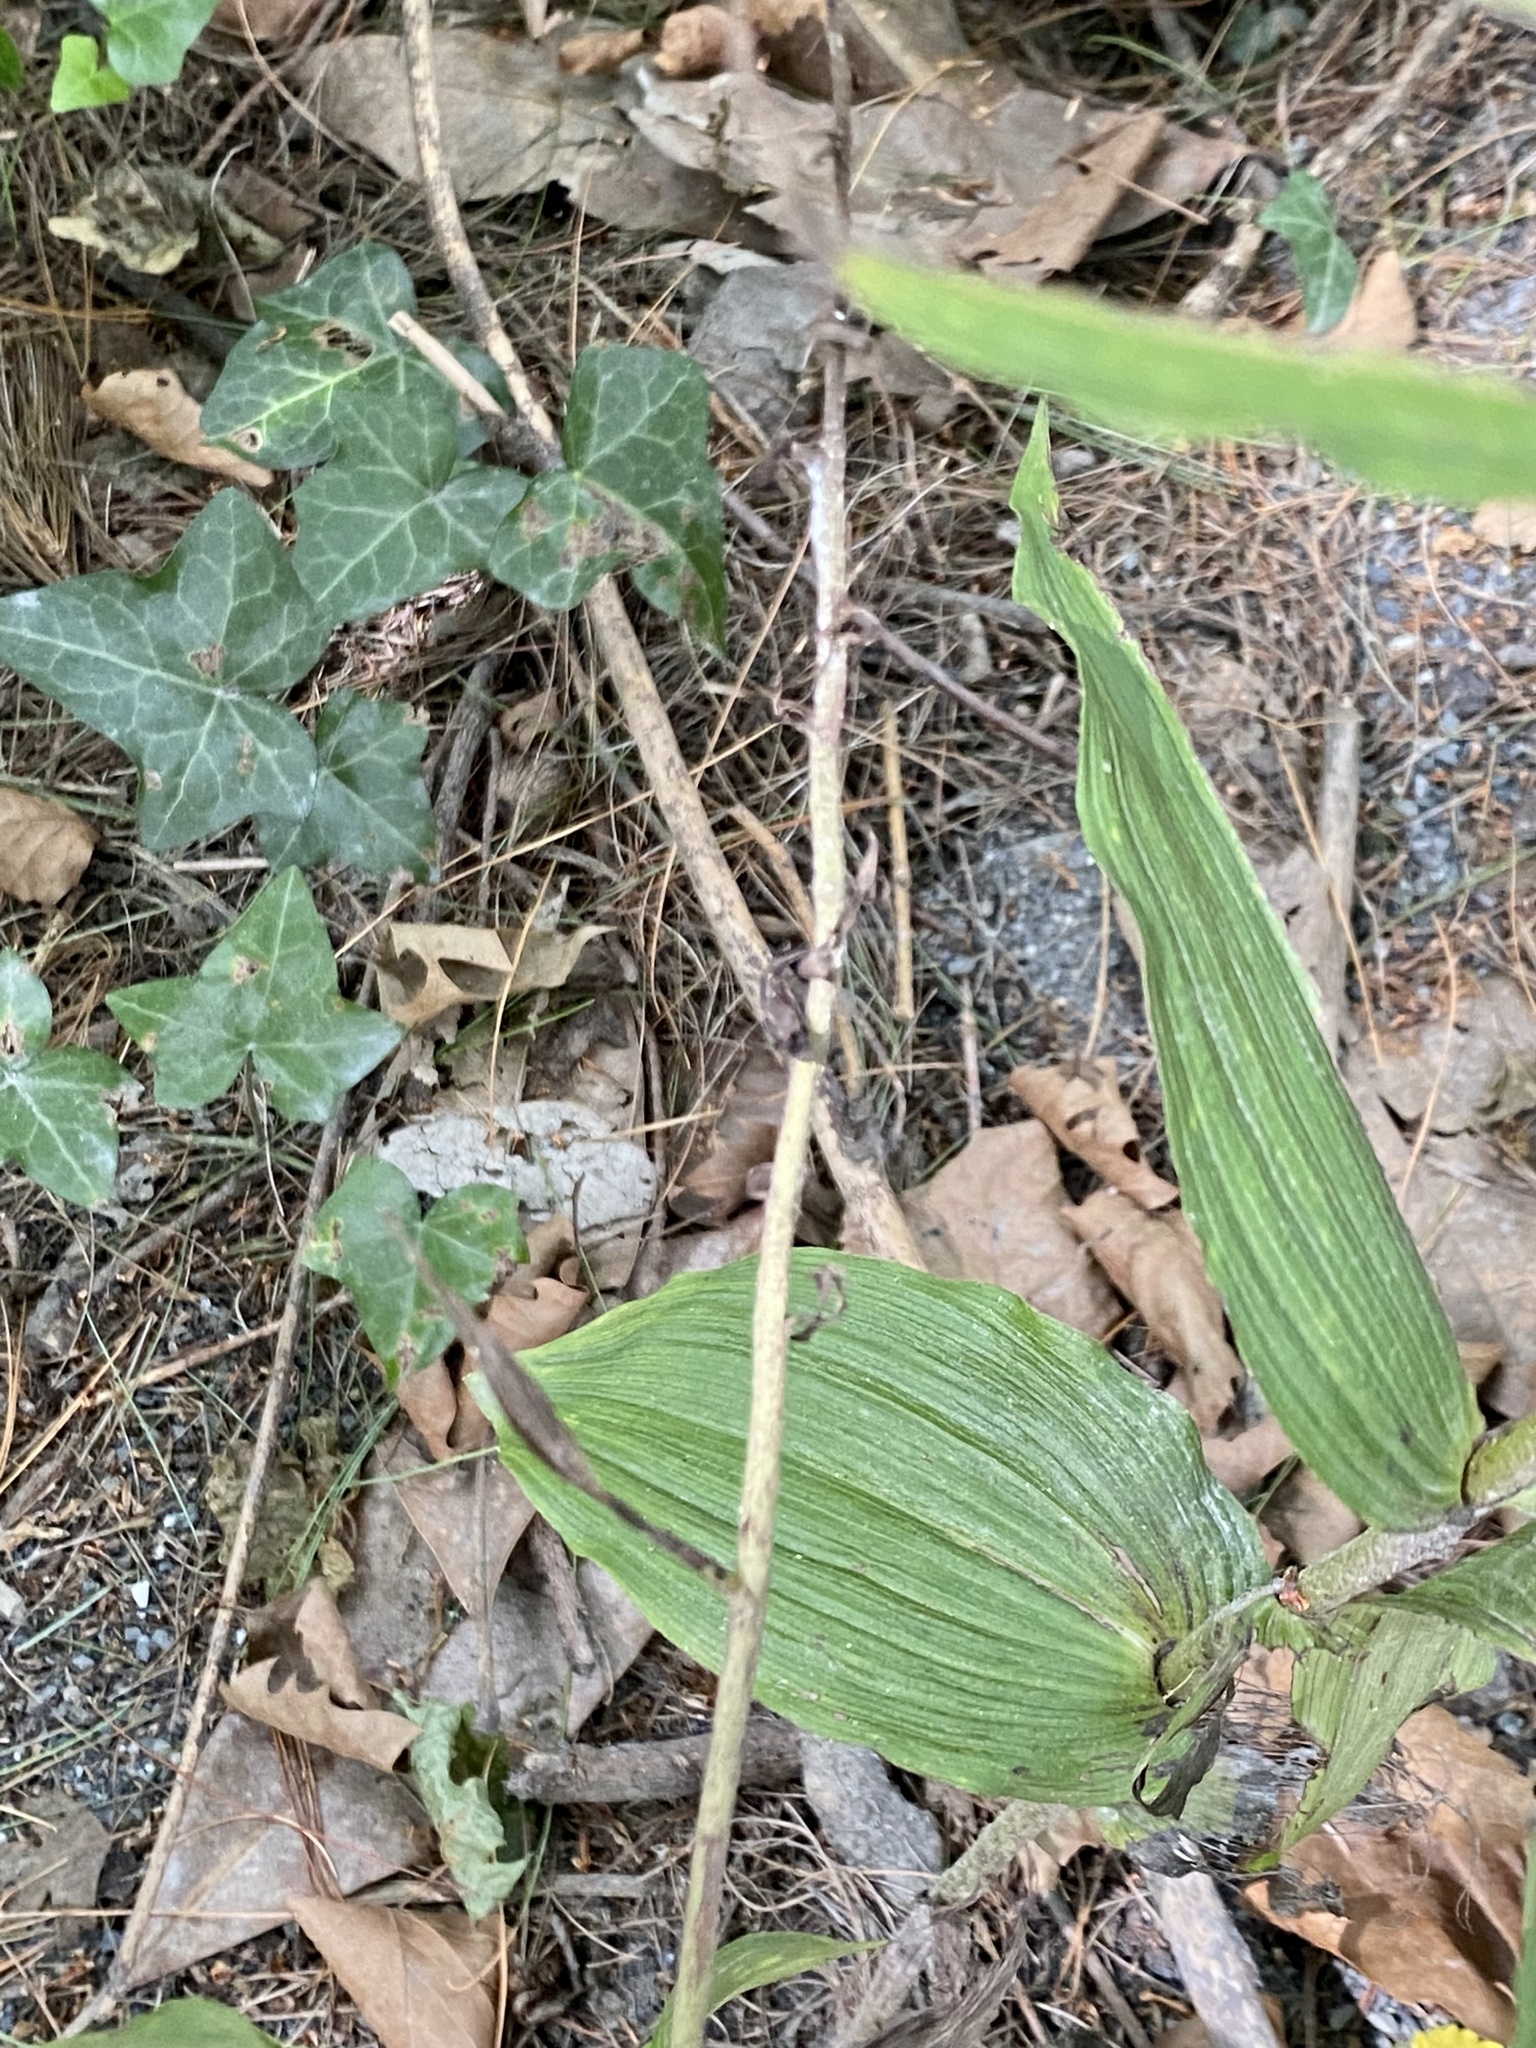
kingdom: Plantae
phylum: Tracheophyta
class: Liliopsida
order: Asparagales
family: Orchidaceae
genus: Epipactis
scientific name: Epipactis helleborine
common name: Broad-leaved helleborine
